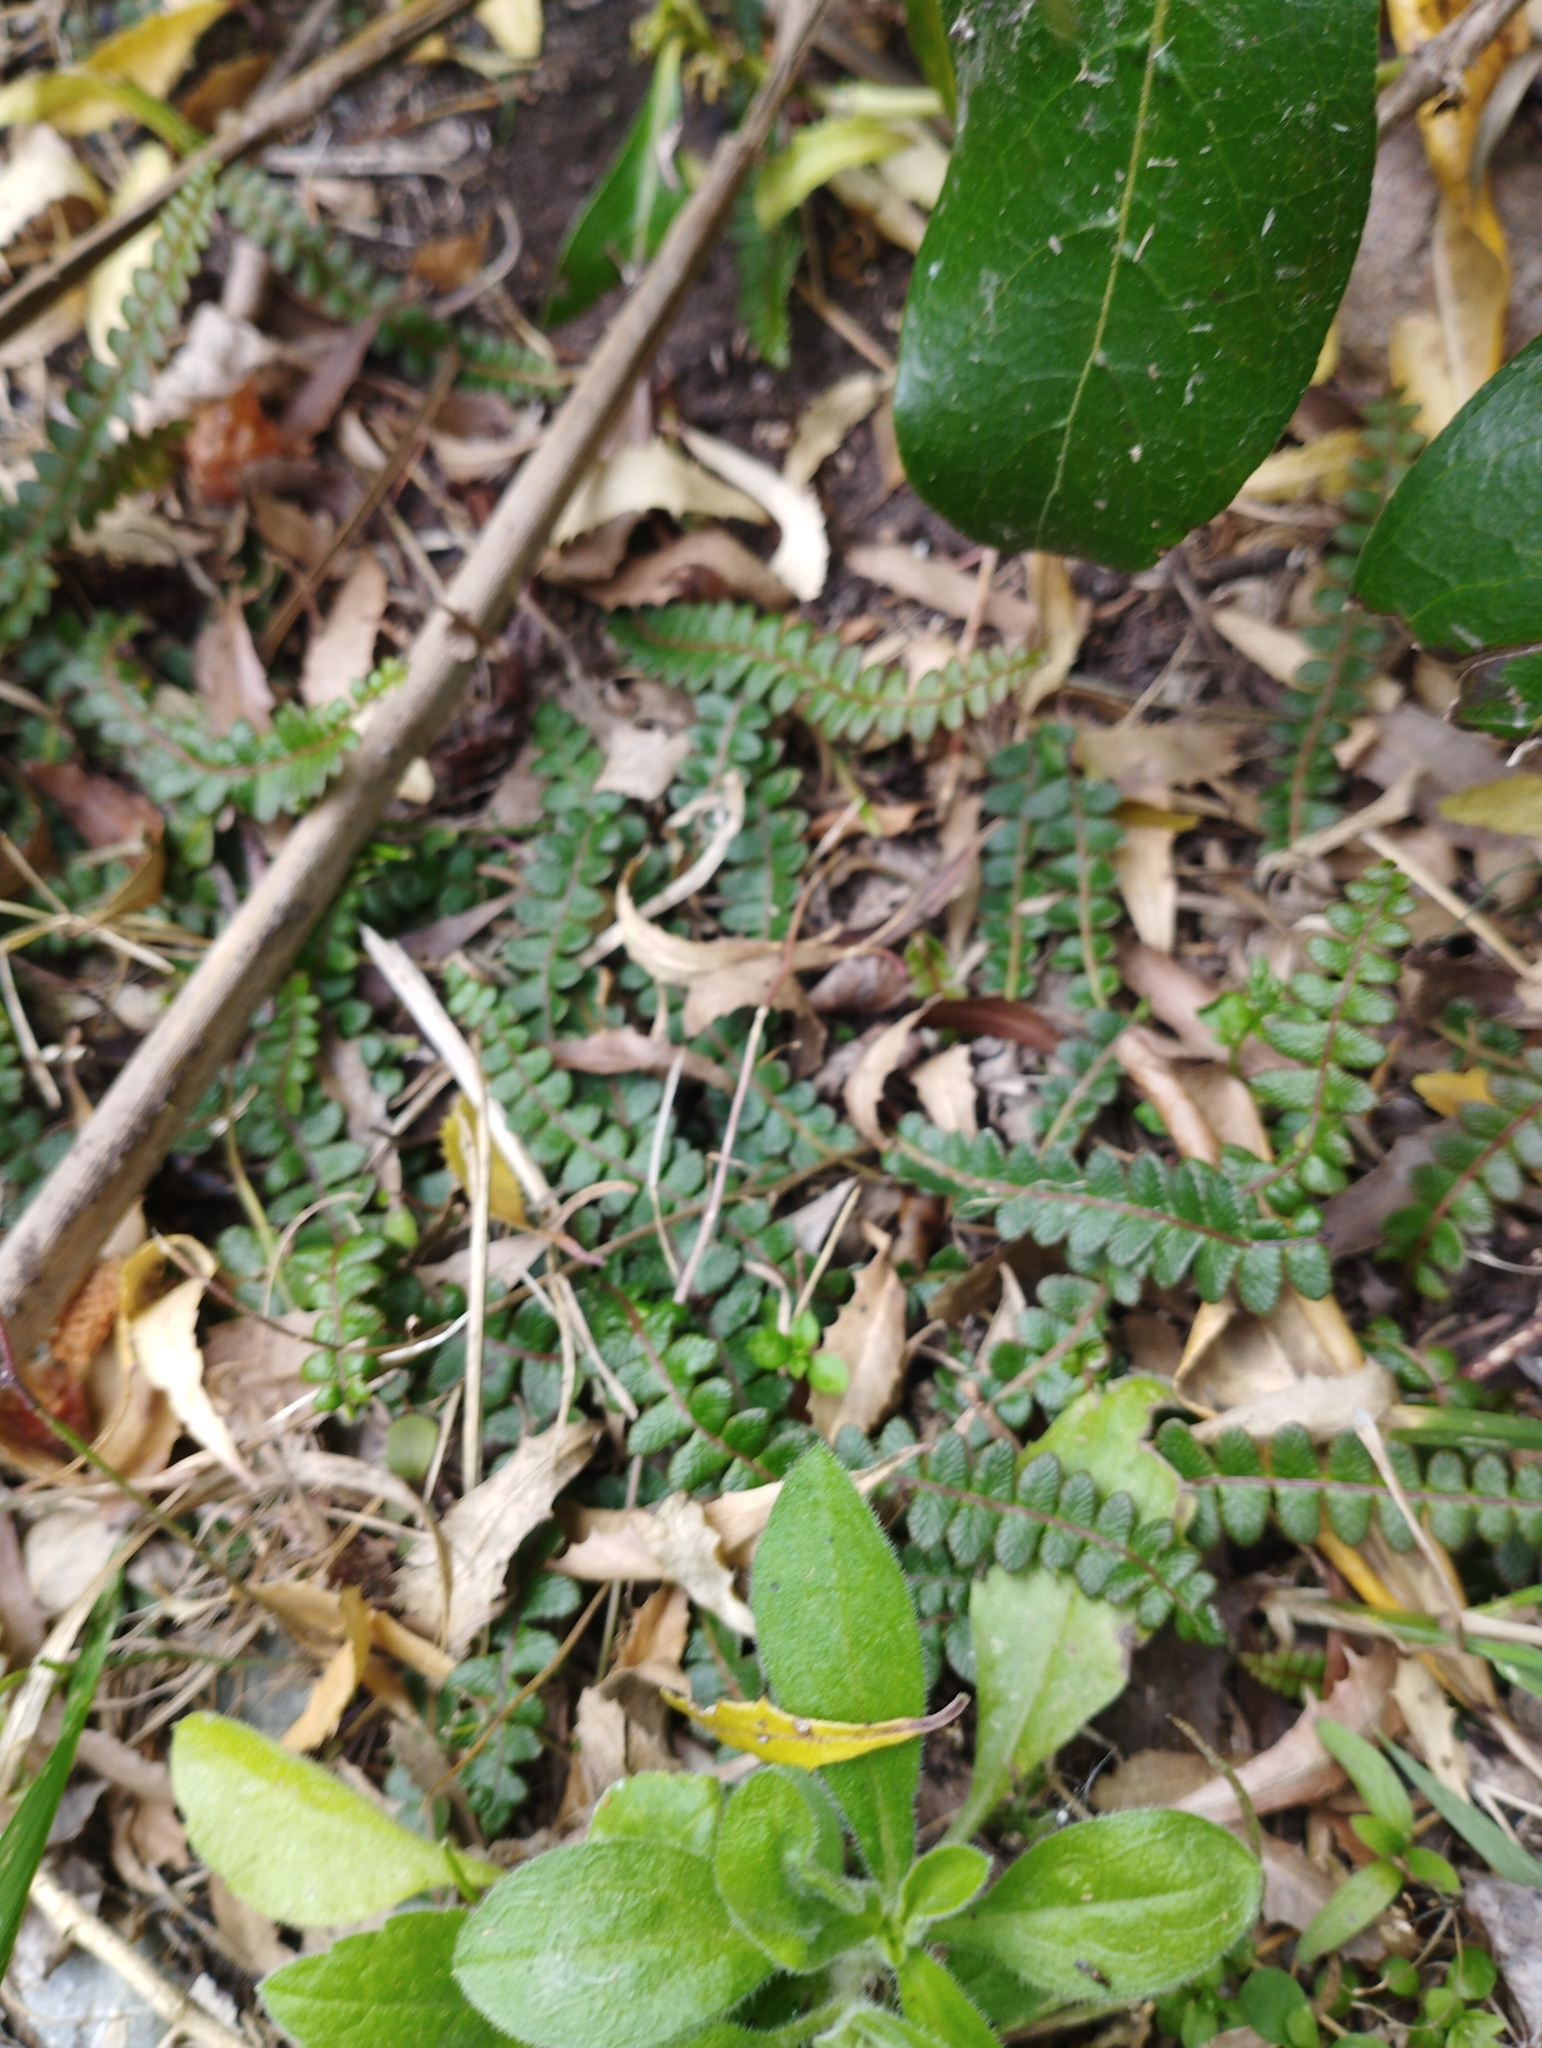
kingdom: Plantae
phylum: Tracheophyta
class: Polypodiopsida
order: Polypodiales
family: Blechnaceae
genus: Austroblechnum
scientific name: Austroblechnum penna-marina
